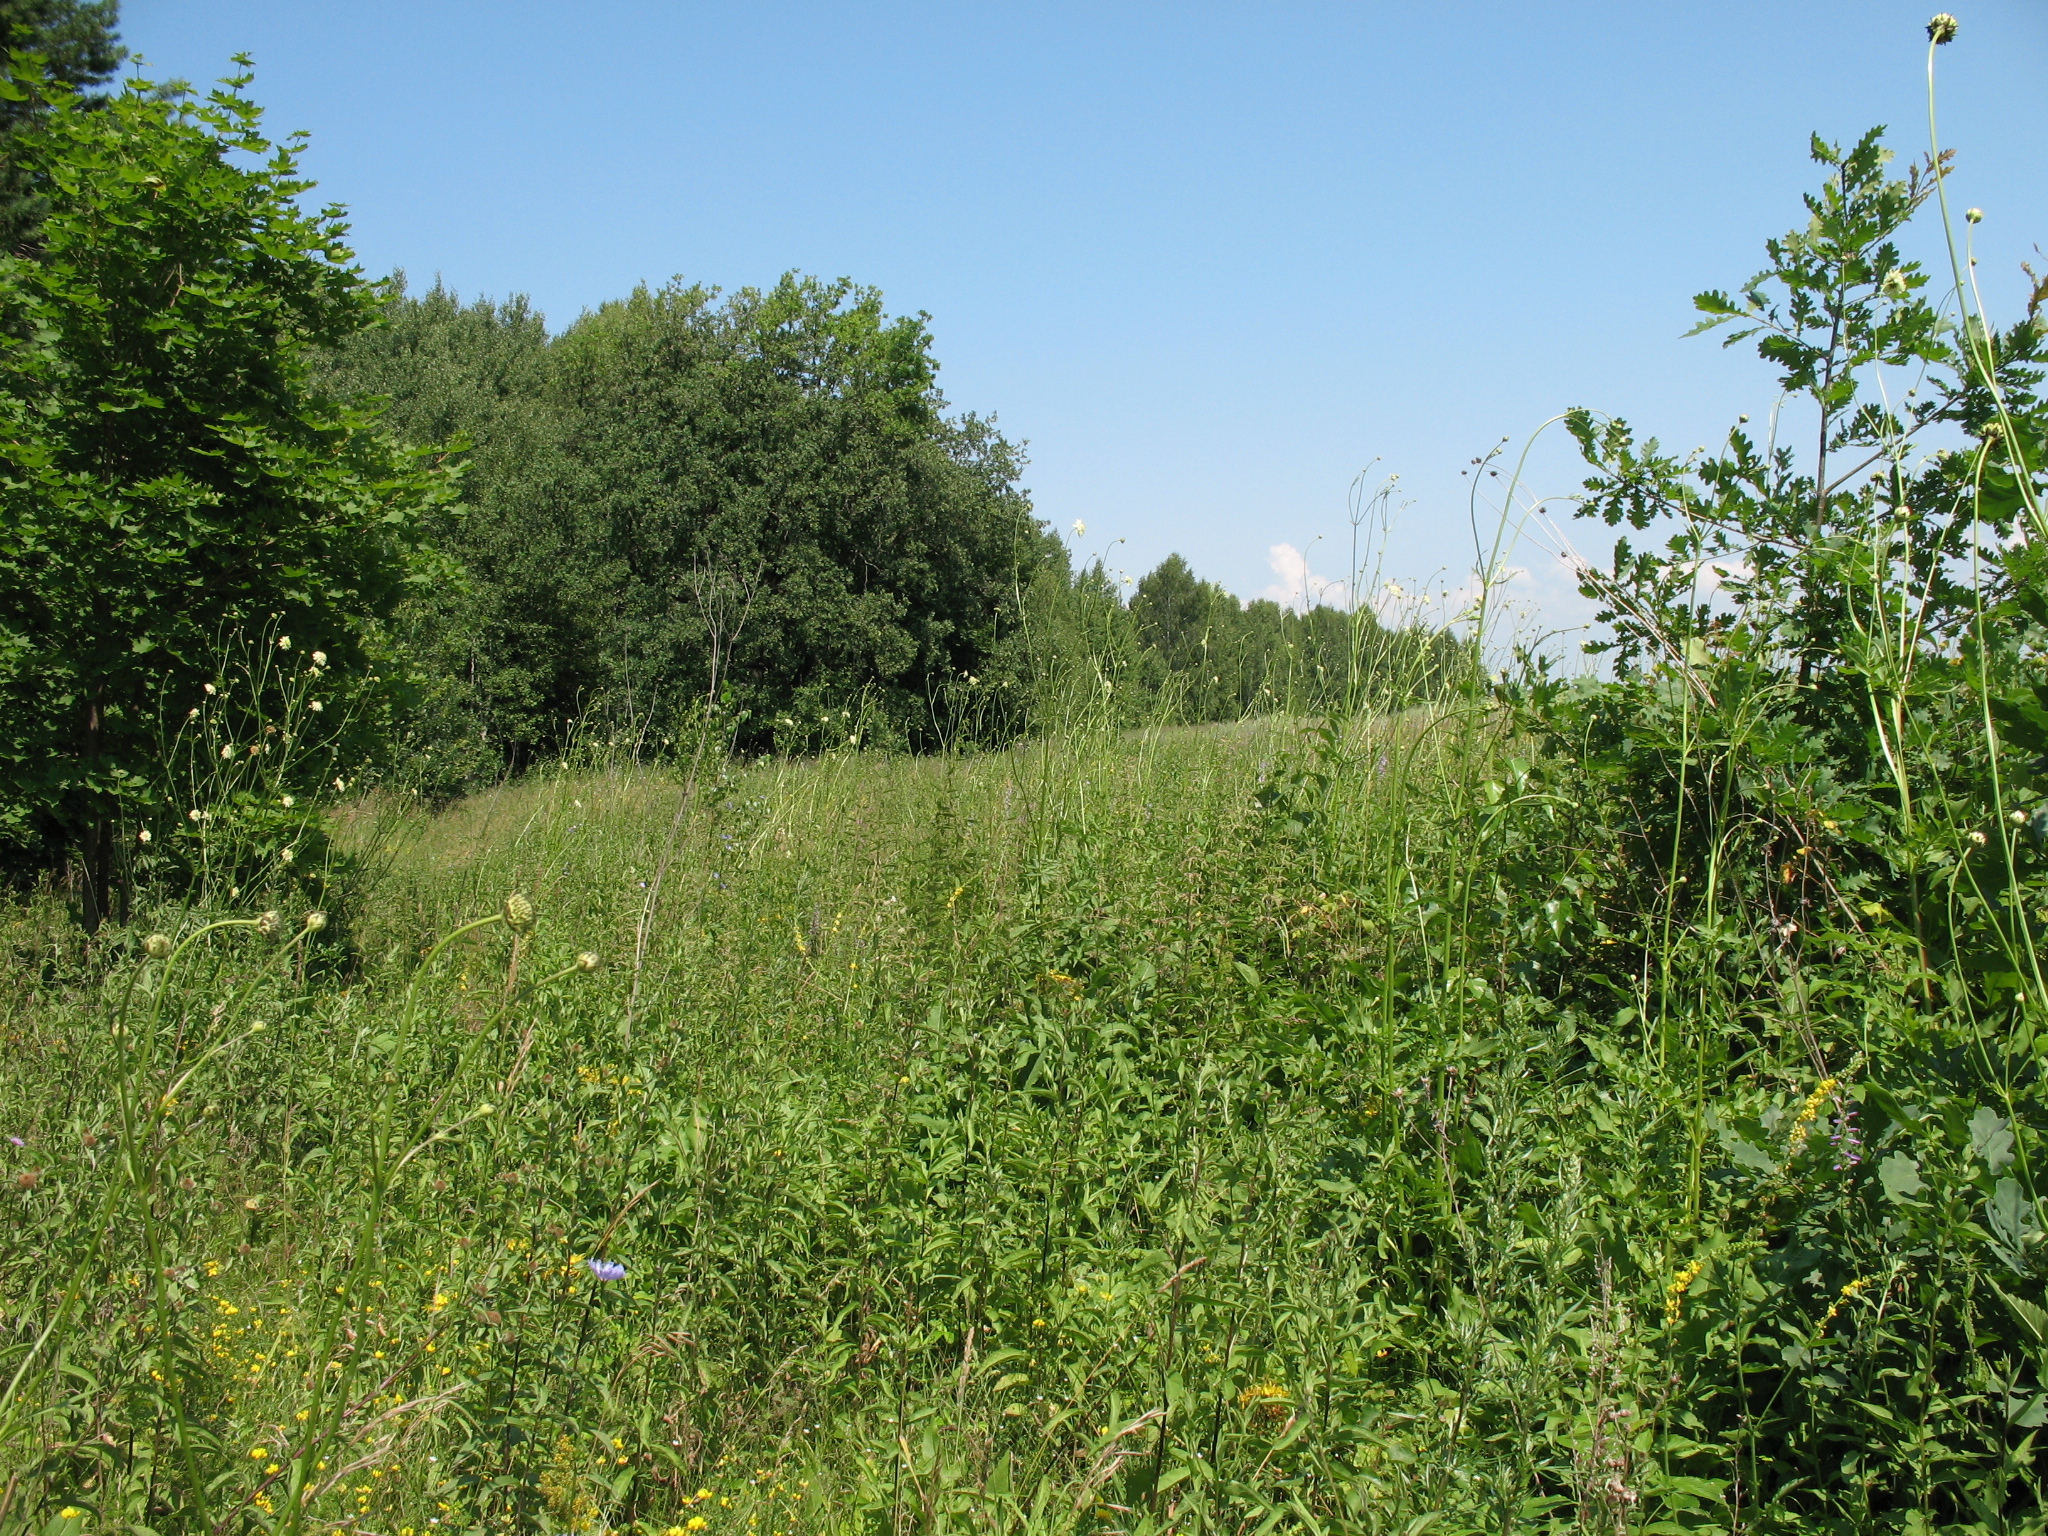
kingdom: Plantae
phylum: Tracheophyta
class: Magnoliopsida
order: Dipsacales
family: Caprifoliaceae
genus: Cephalaria
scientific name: Cephalaria litvinovii
